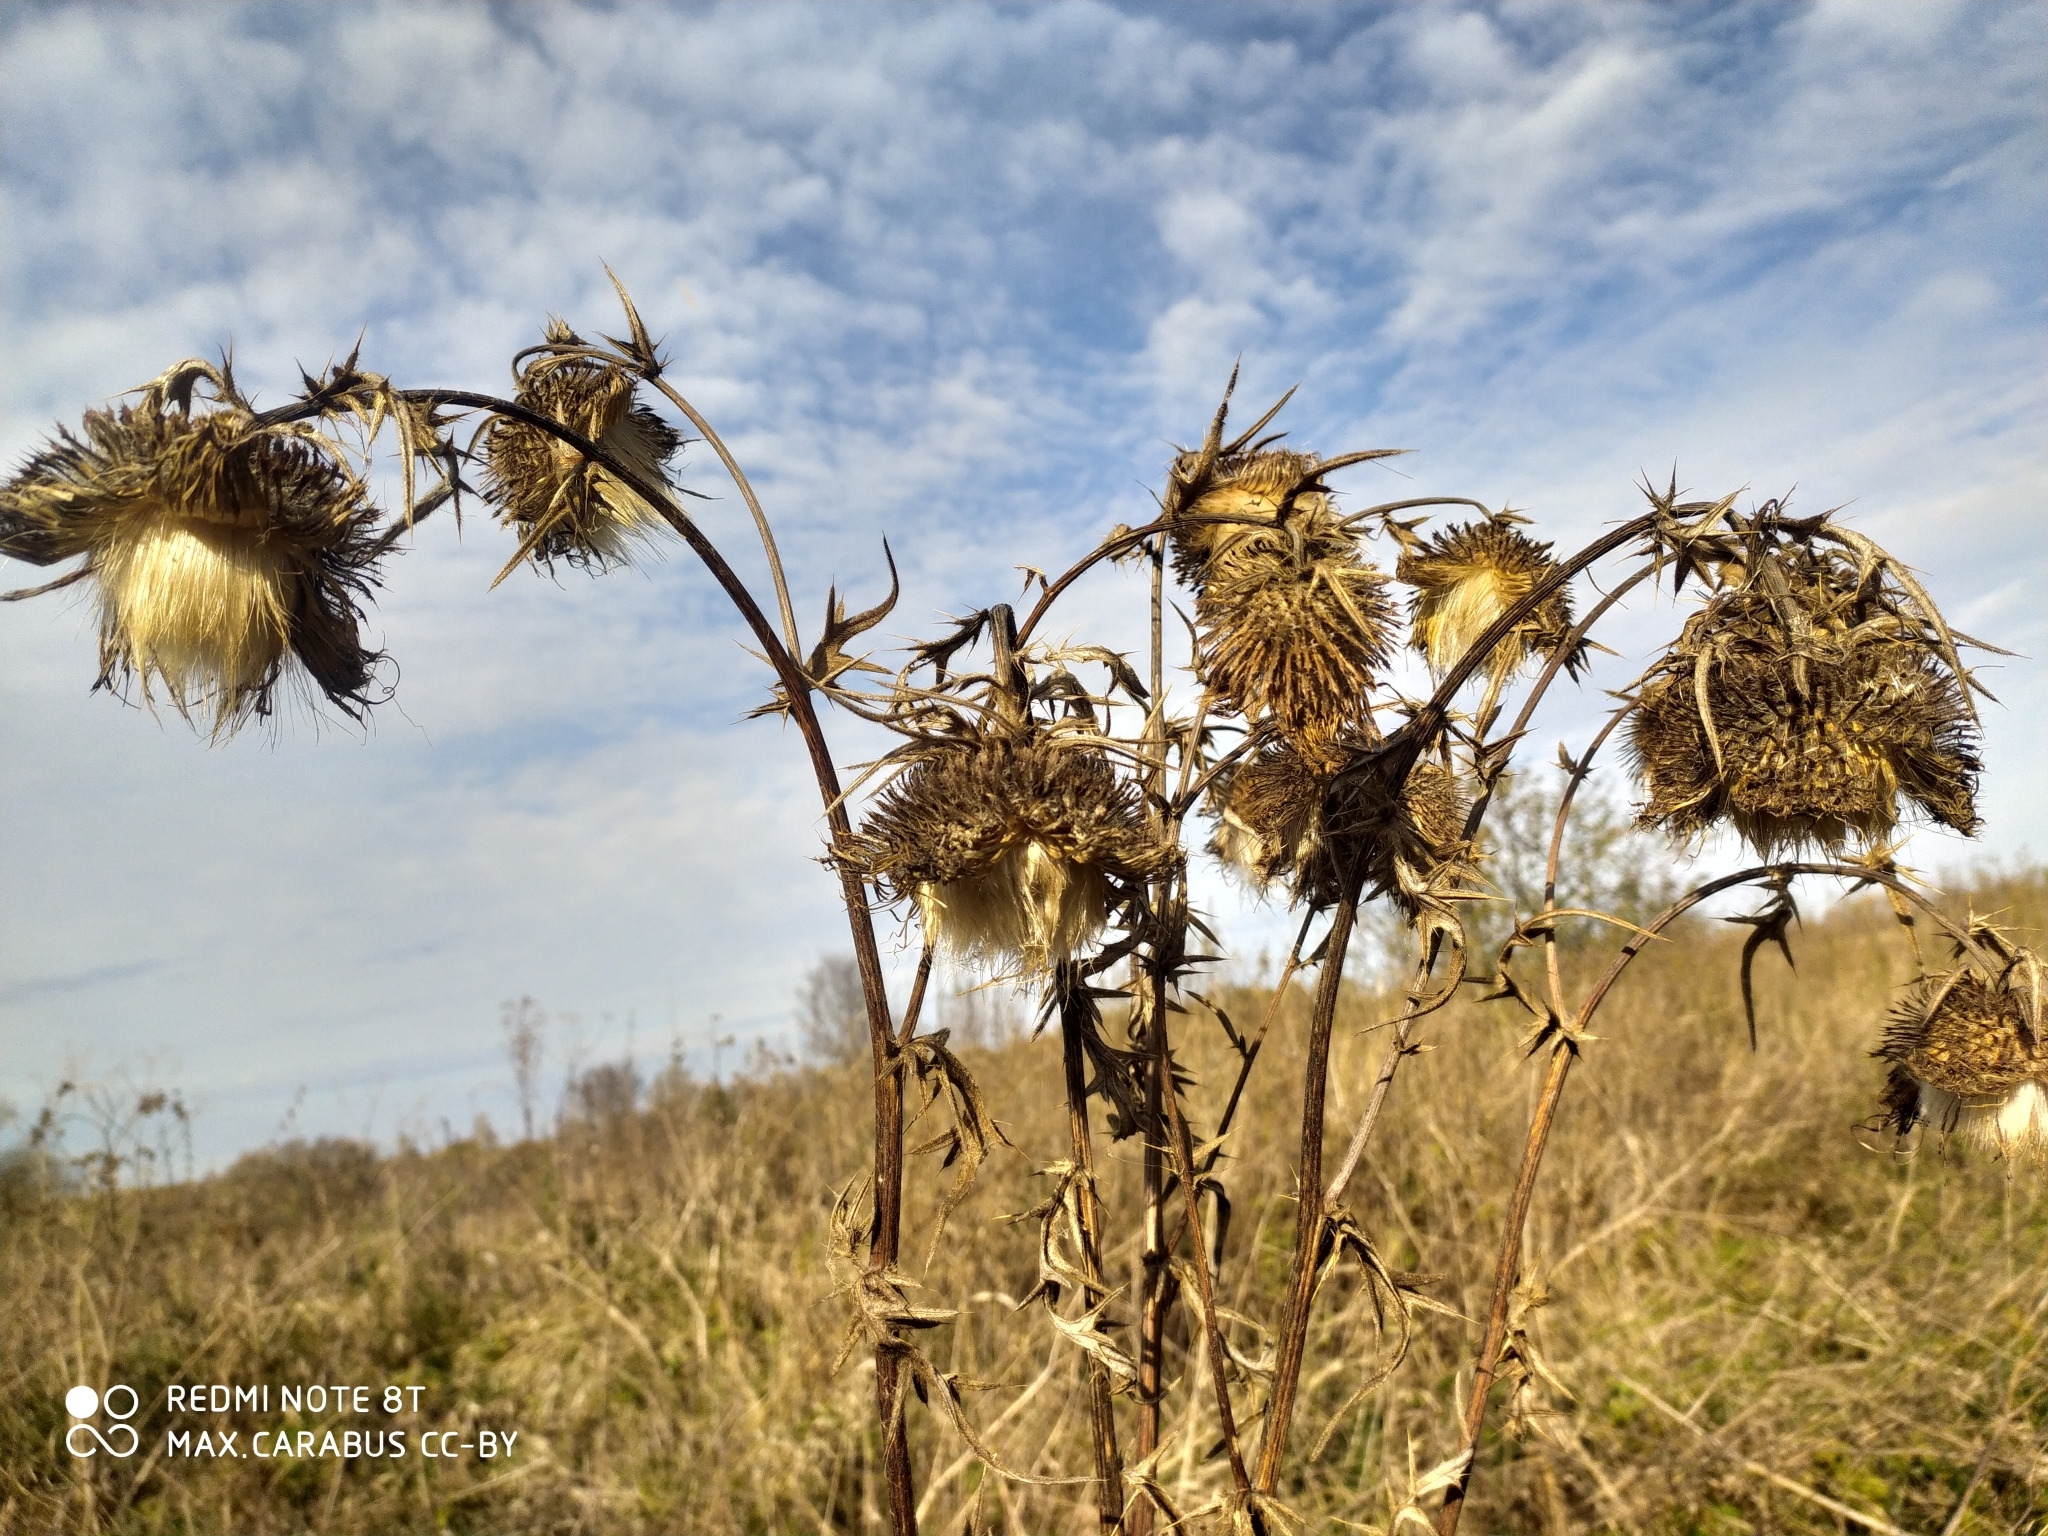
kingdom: Plantae
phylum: Tracheophyta
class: Magnoliopsida
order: Asterales
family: Asteraceae
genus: Lophiolepis
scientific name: Lophiolepis decussata
